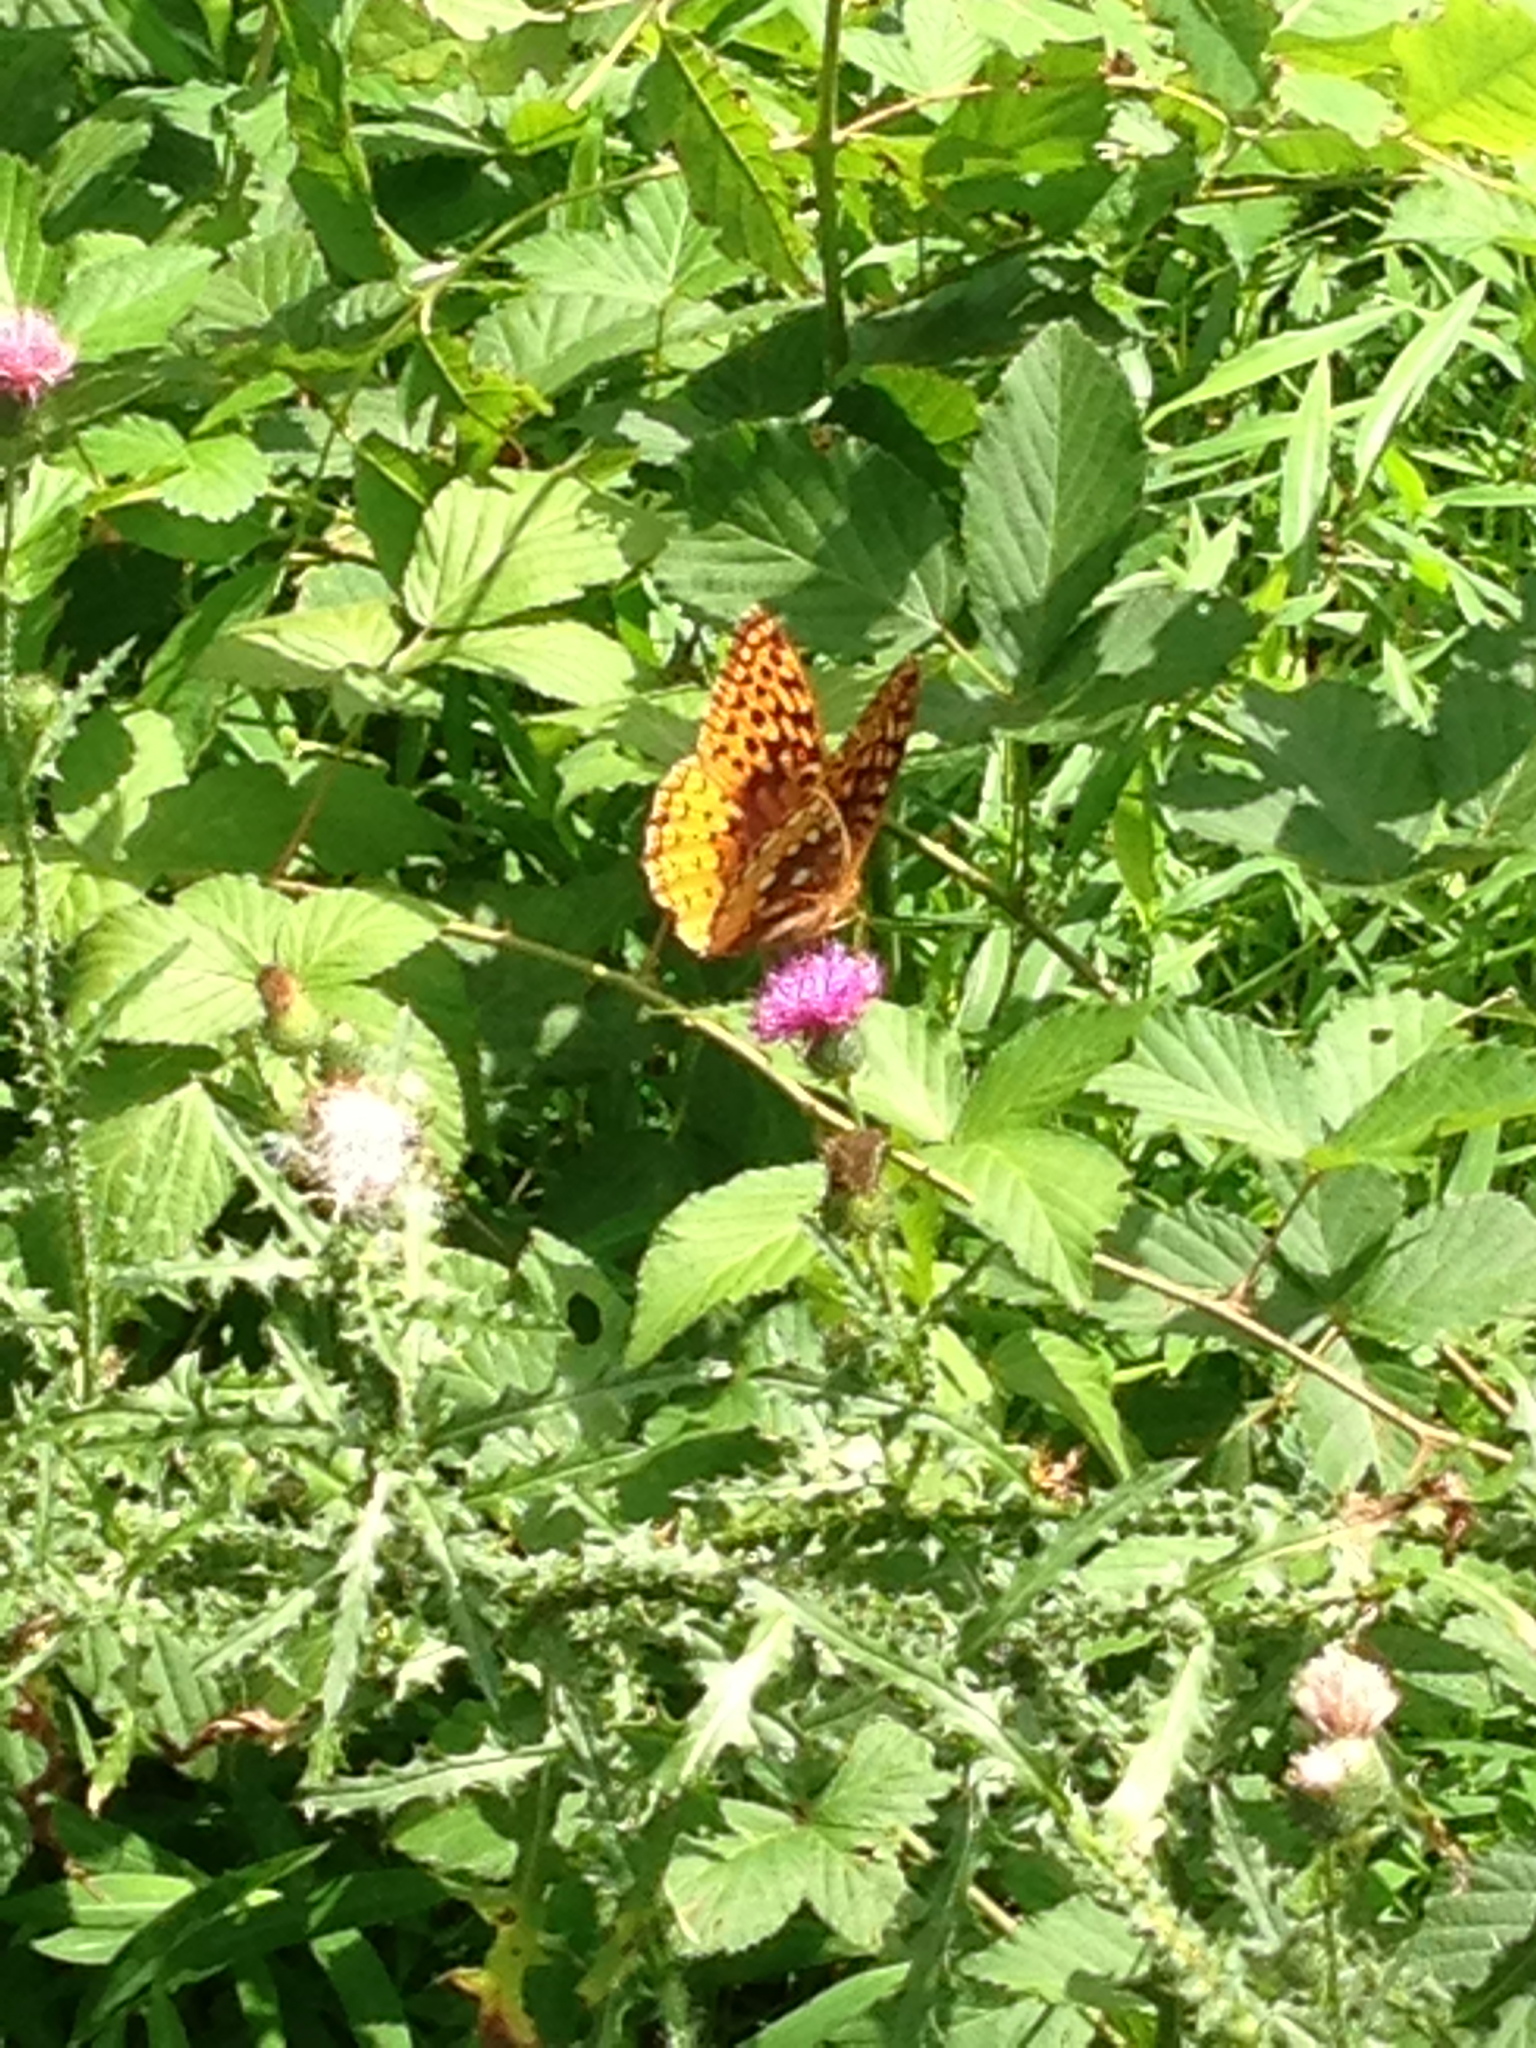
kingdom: Animalia
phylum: Arthropoda
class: Insecta
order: Lepidoptera
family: Nymphalidae
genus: Speyeria
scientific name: Speyeria cybele
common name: Great spangled fritillary
